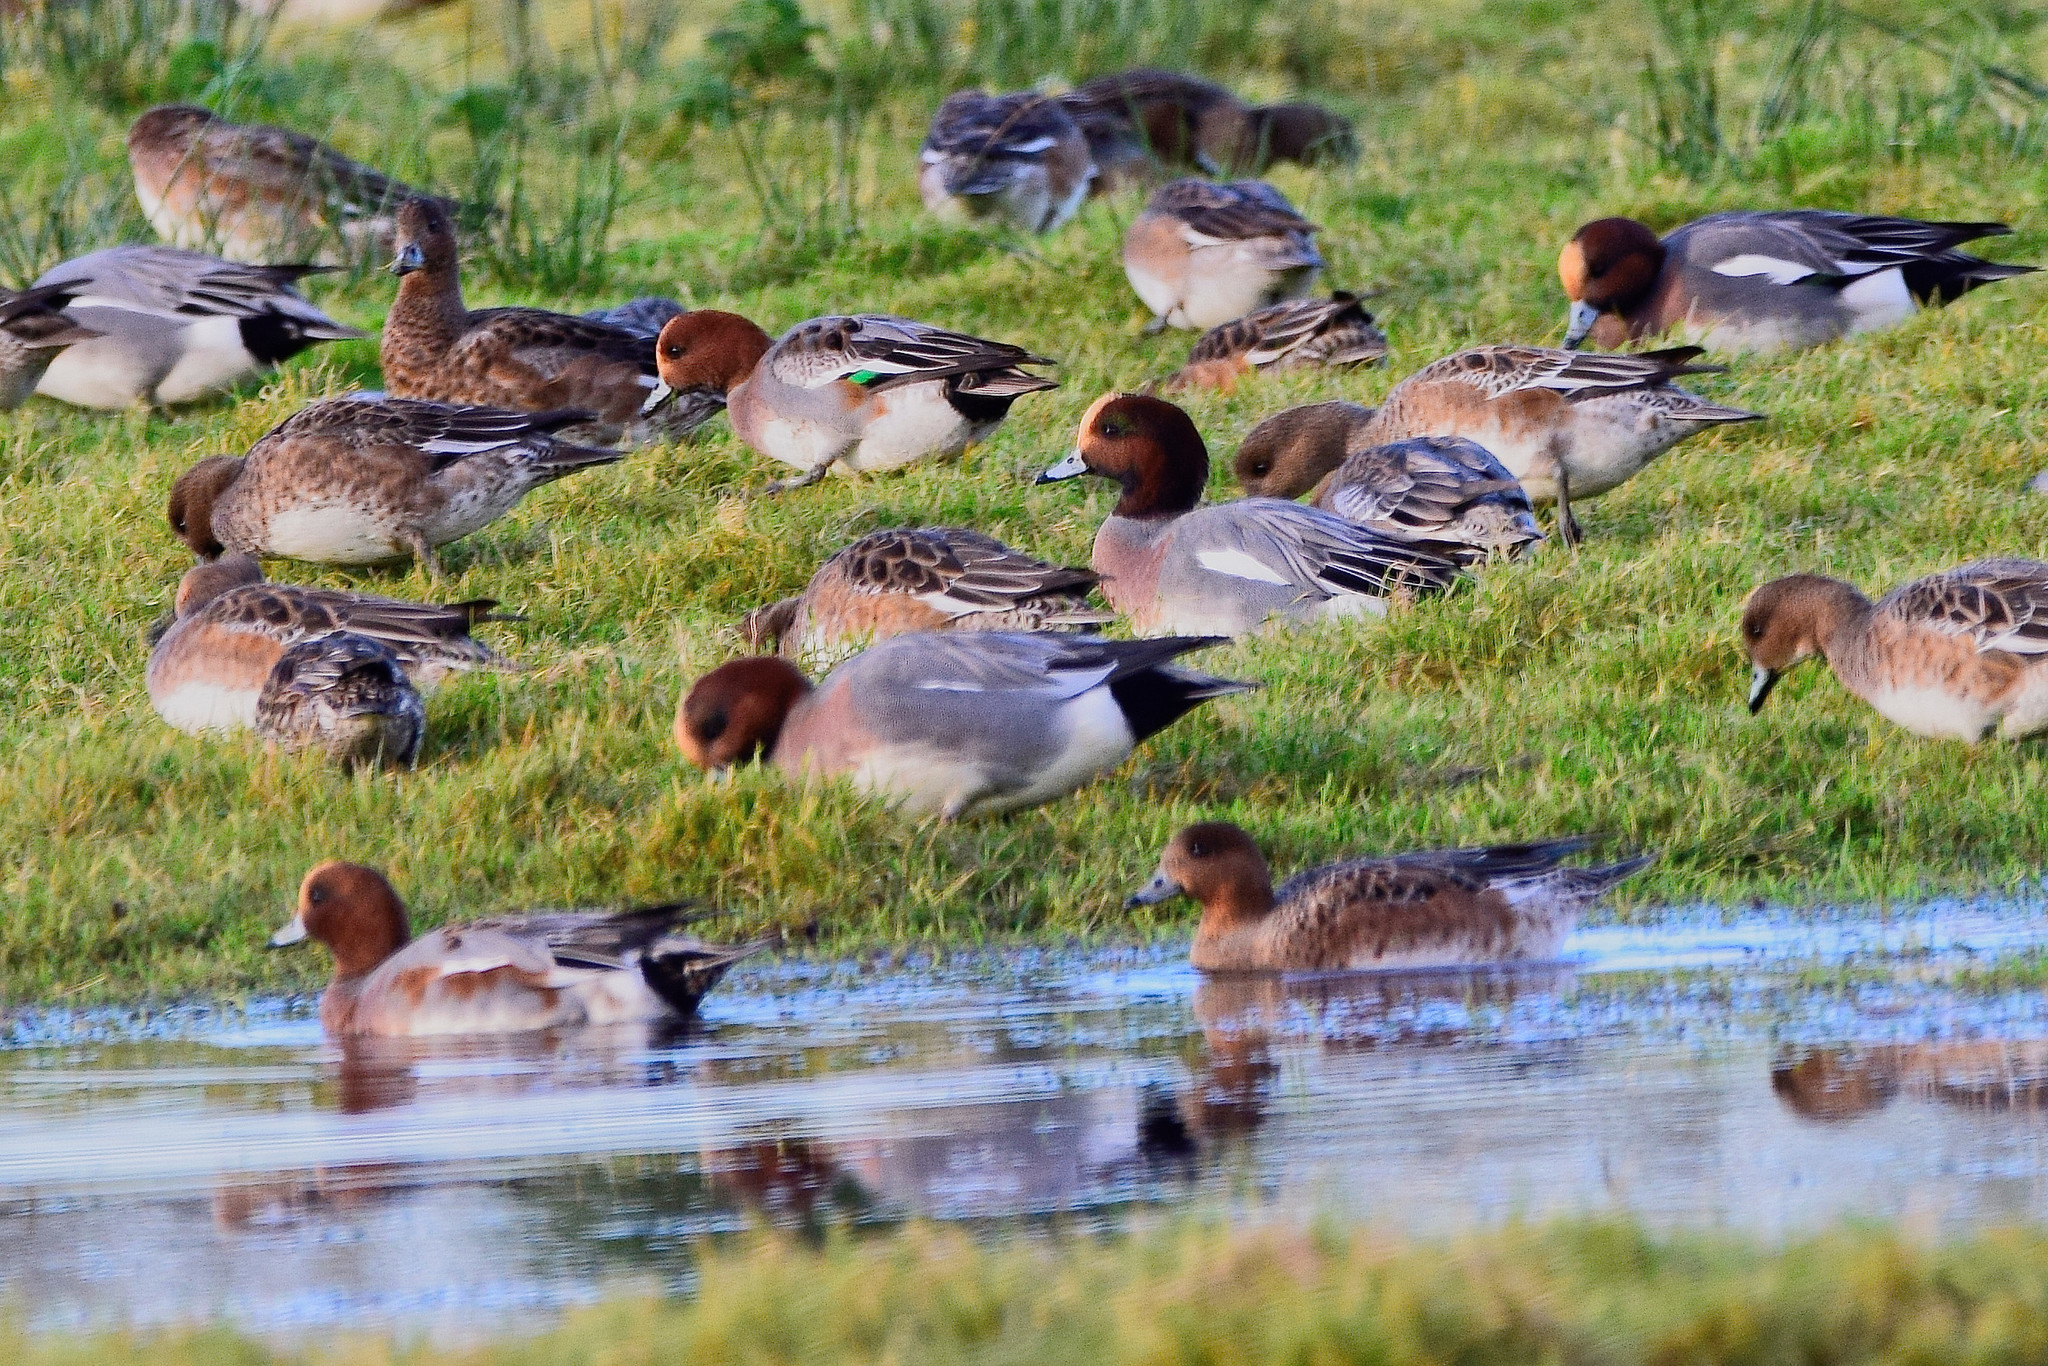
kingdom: Animalia
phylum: Chordata
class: Aves
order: Anseriformes
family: Anatidae
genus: Mareca
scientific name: Mareca penelope
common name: Eurasian wigeon
